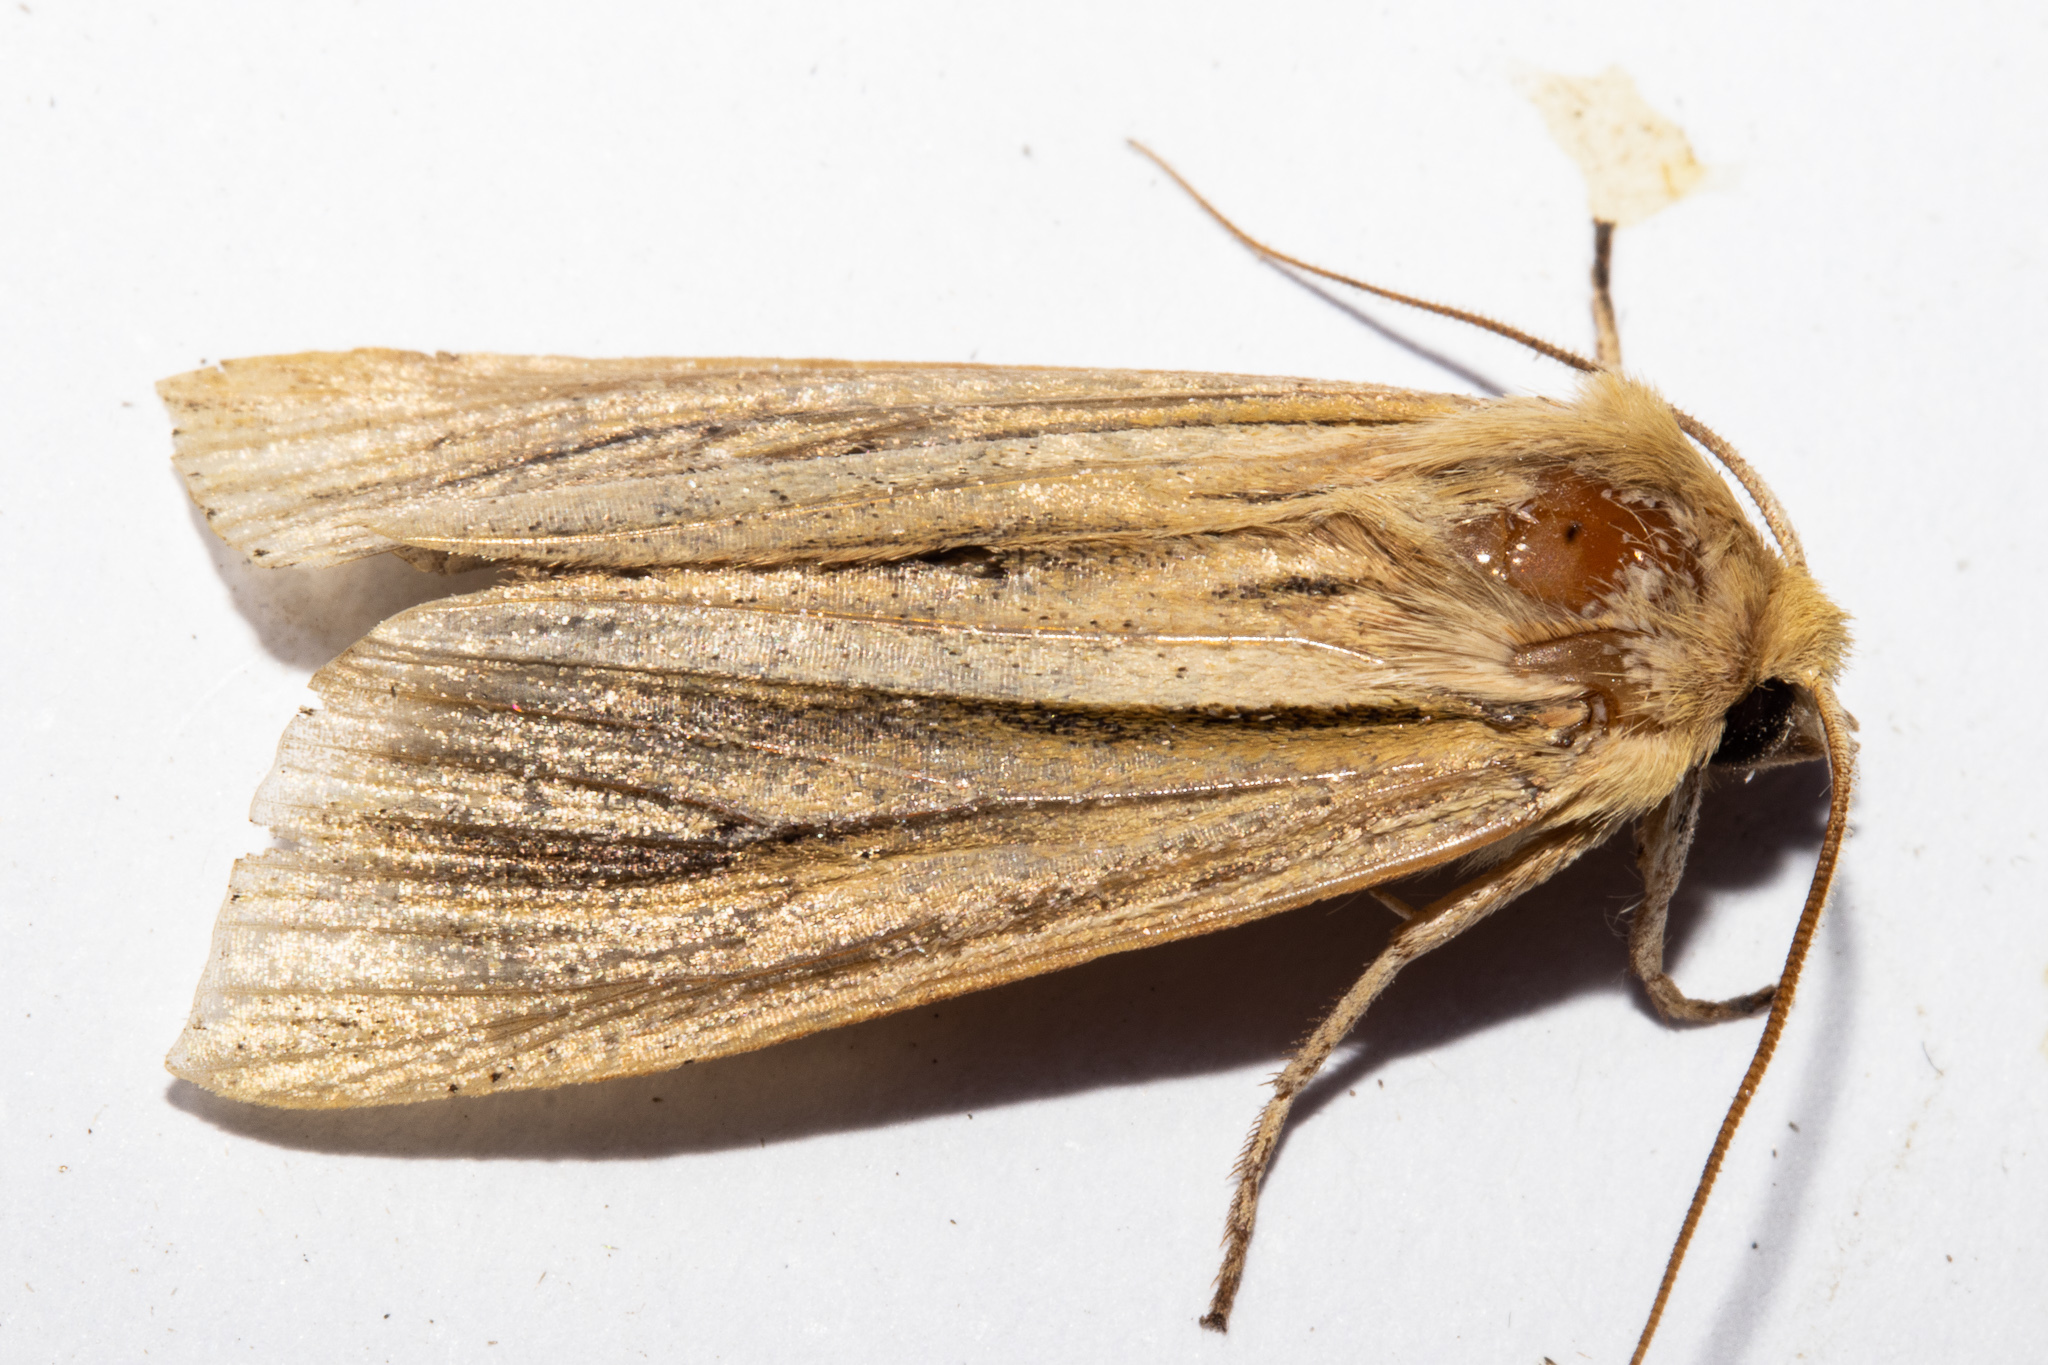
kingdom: Animalia
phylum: Arthropoda
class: Insecta
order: Lepidoptera
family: Noctuidae
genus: Ichneutica
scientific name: Ichneutica sulcana
